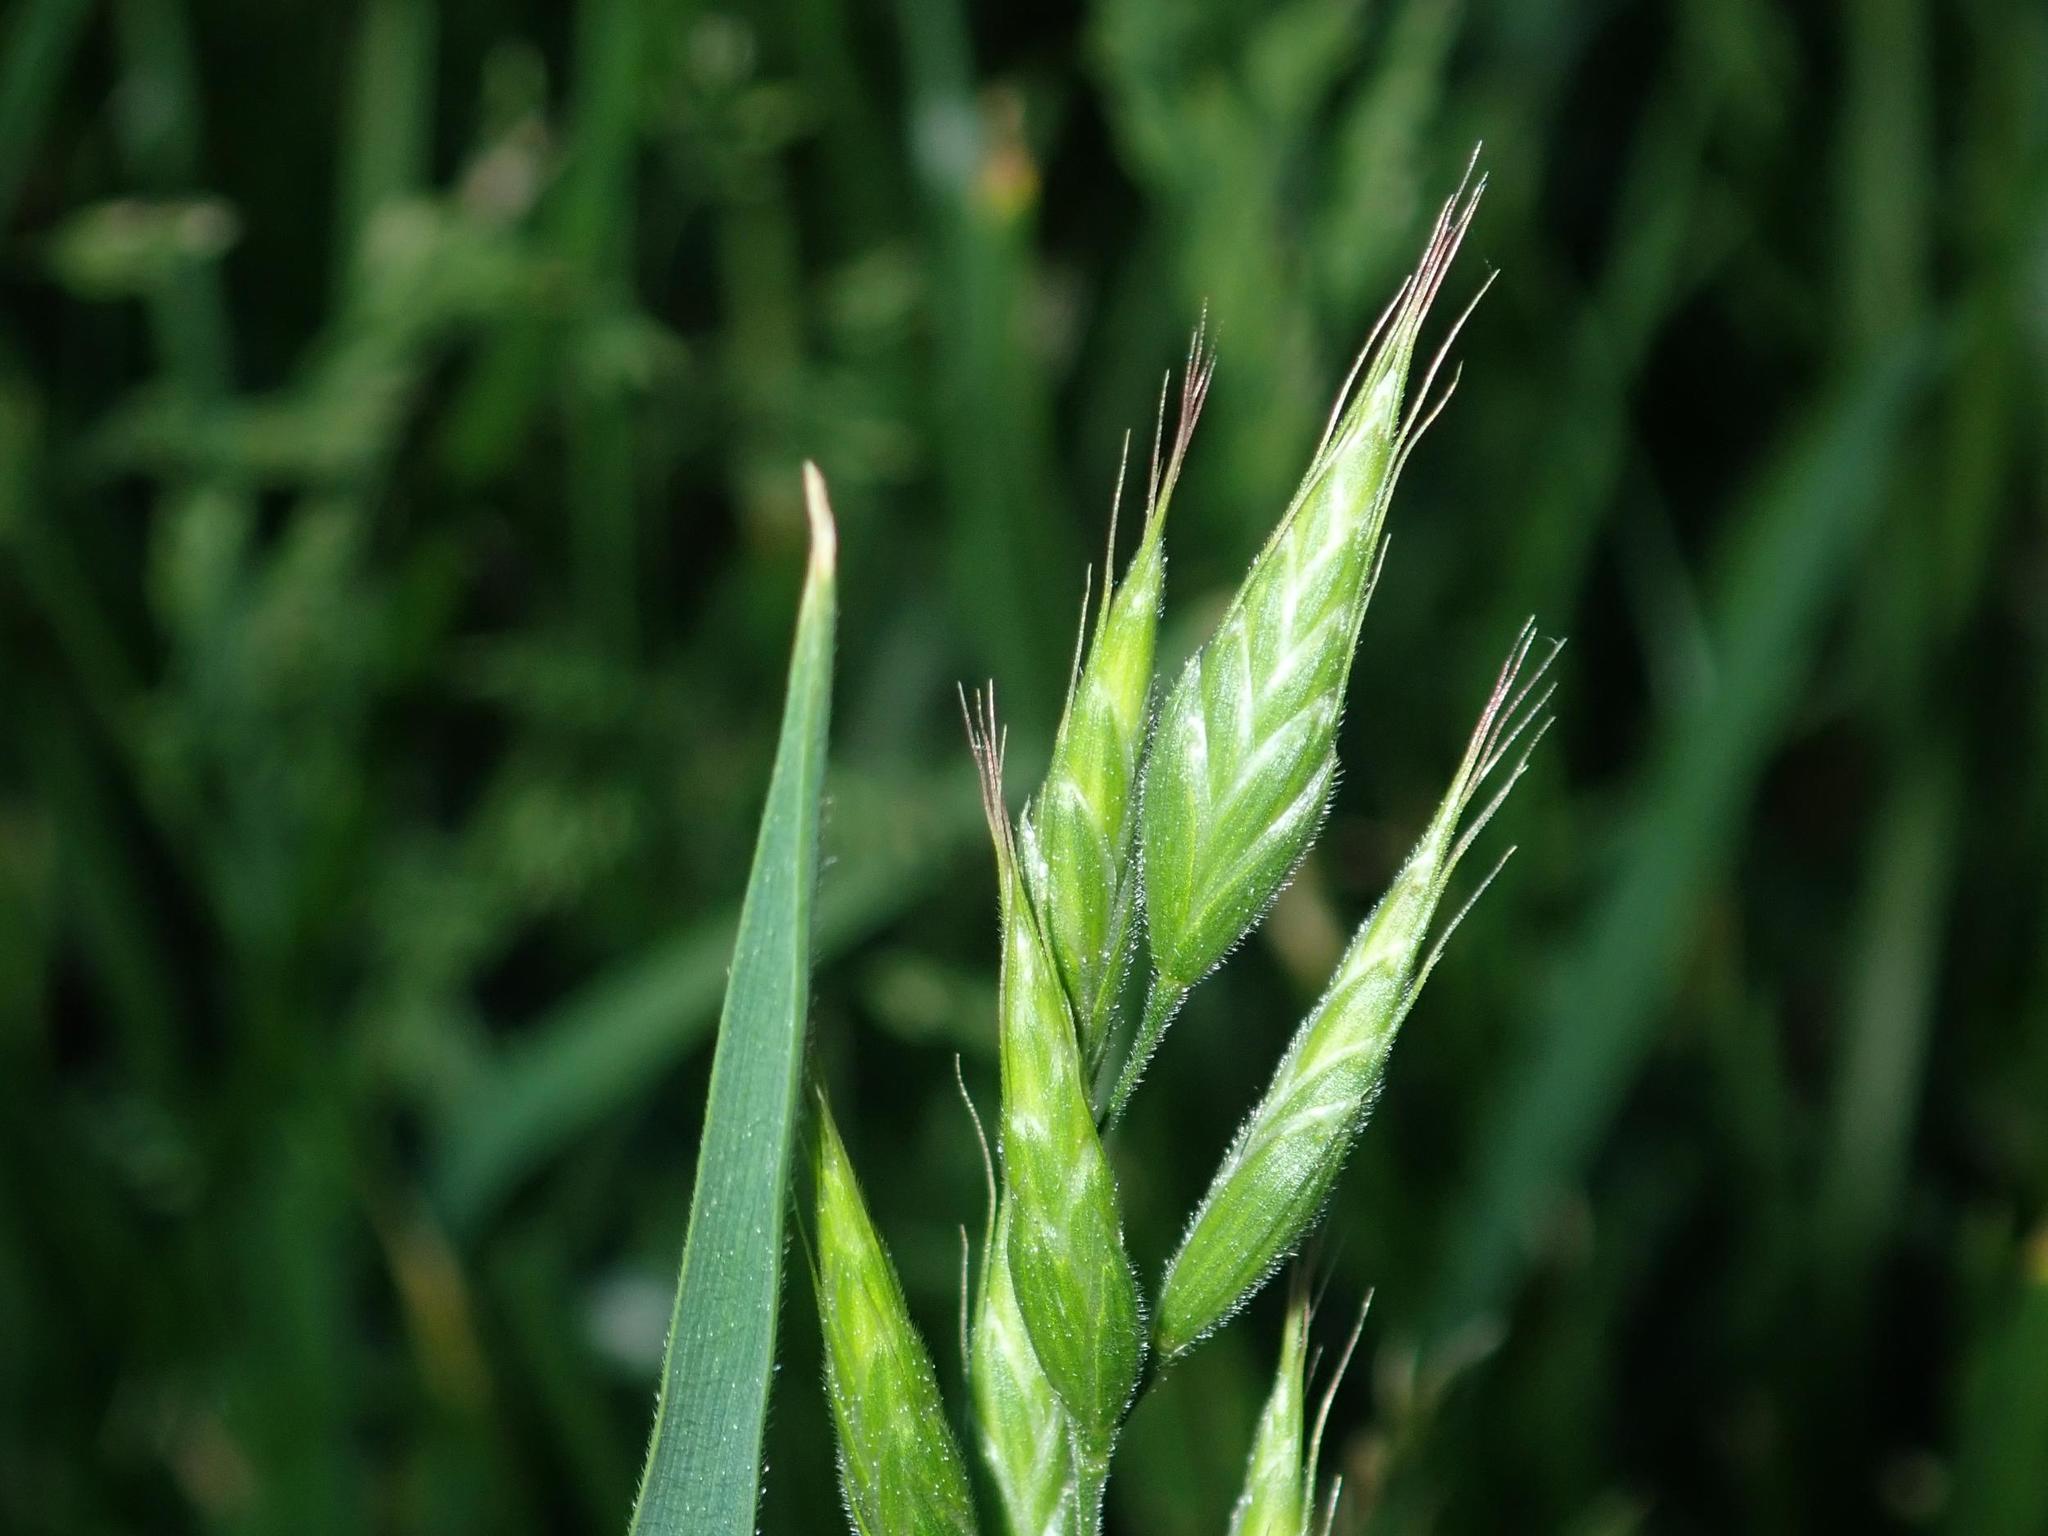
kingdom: Plantae
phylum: Tracheophyta
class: Liliopsida
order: Poales
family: Poaceae
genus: Bromus
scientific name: Bromus hordeaceus
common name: Soft brome
